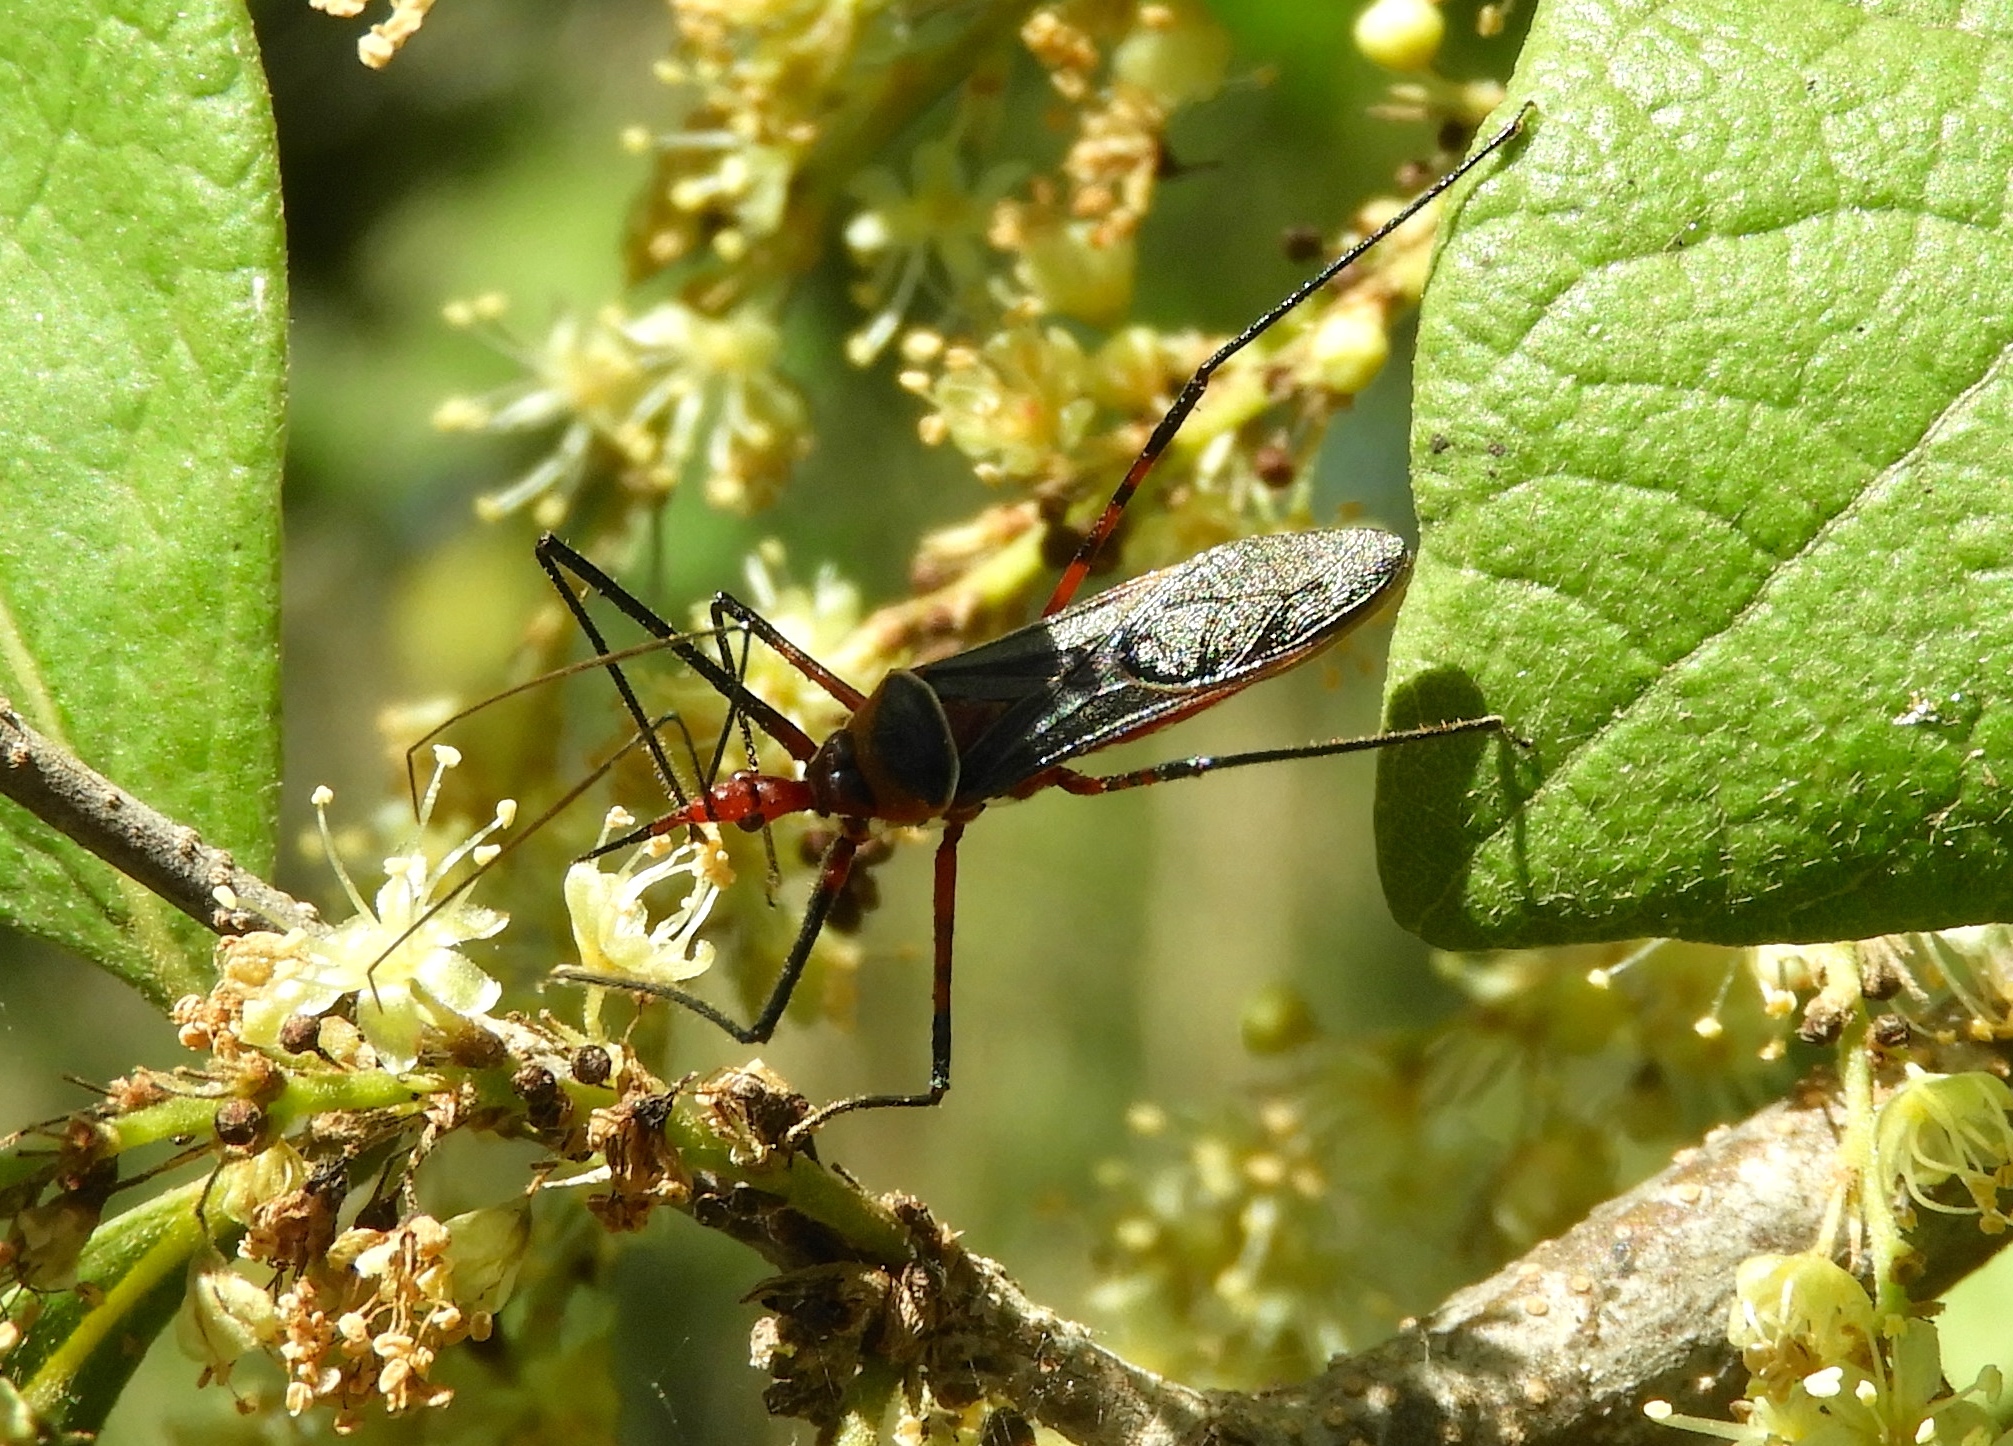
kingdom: Animalia
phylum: Arthropoda
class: Insecta
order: Hemiptera
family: Reduviidae
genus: Zelus
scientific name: Zelus grassans
